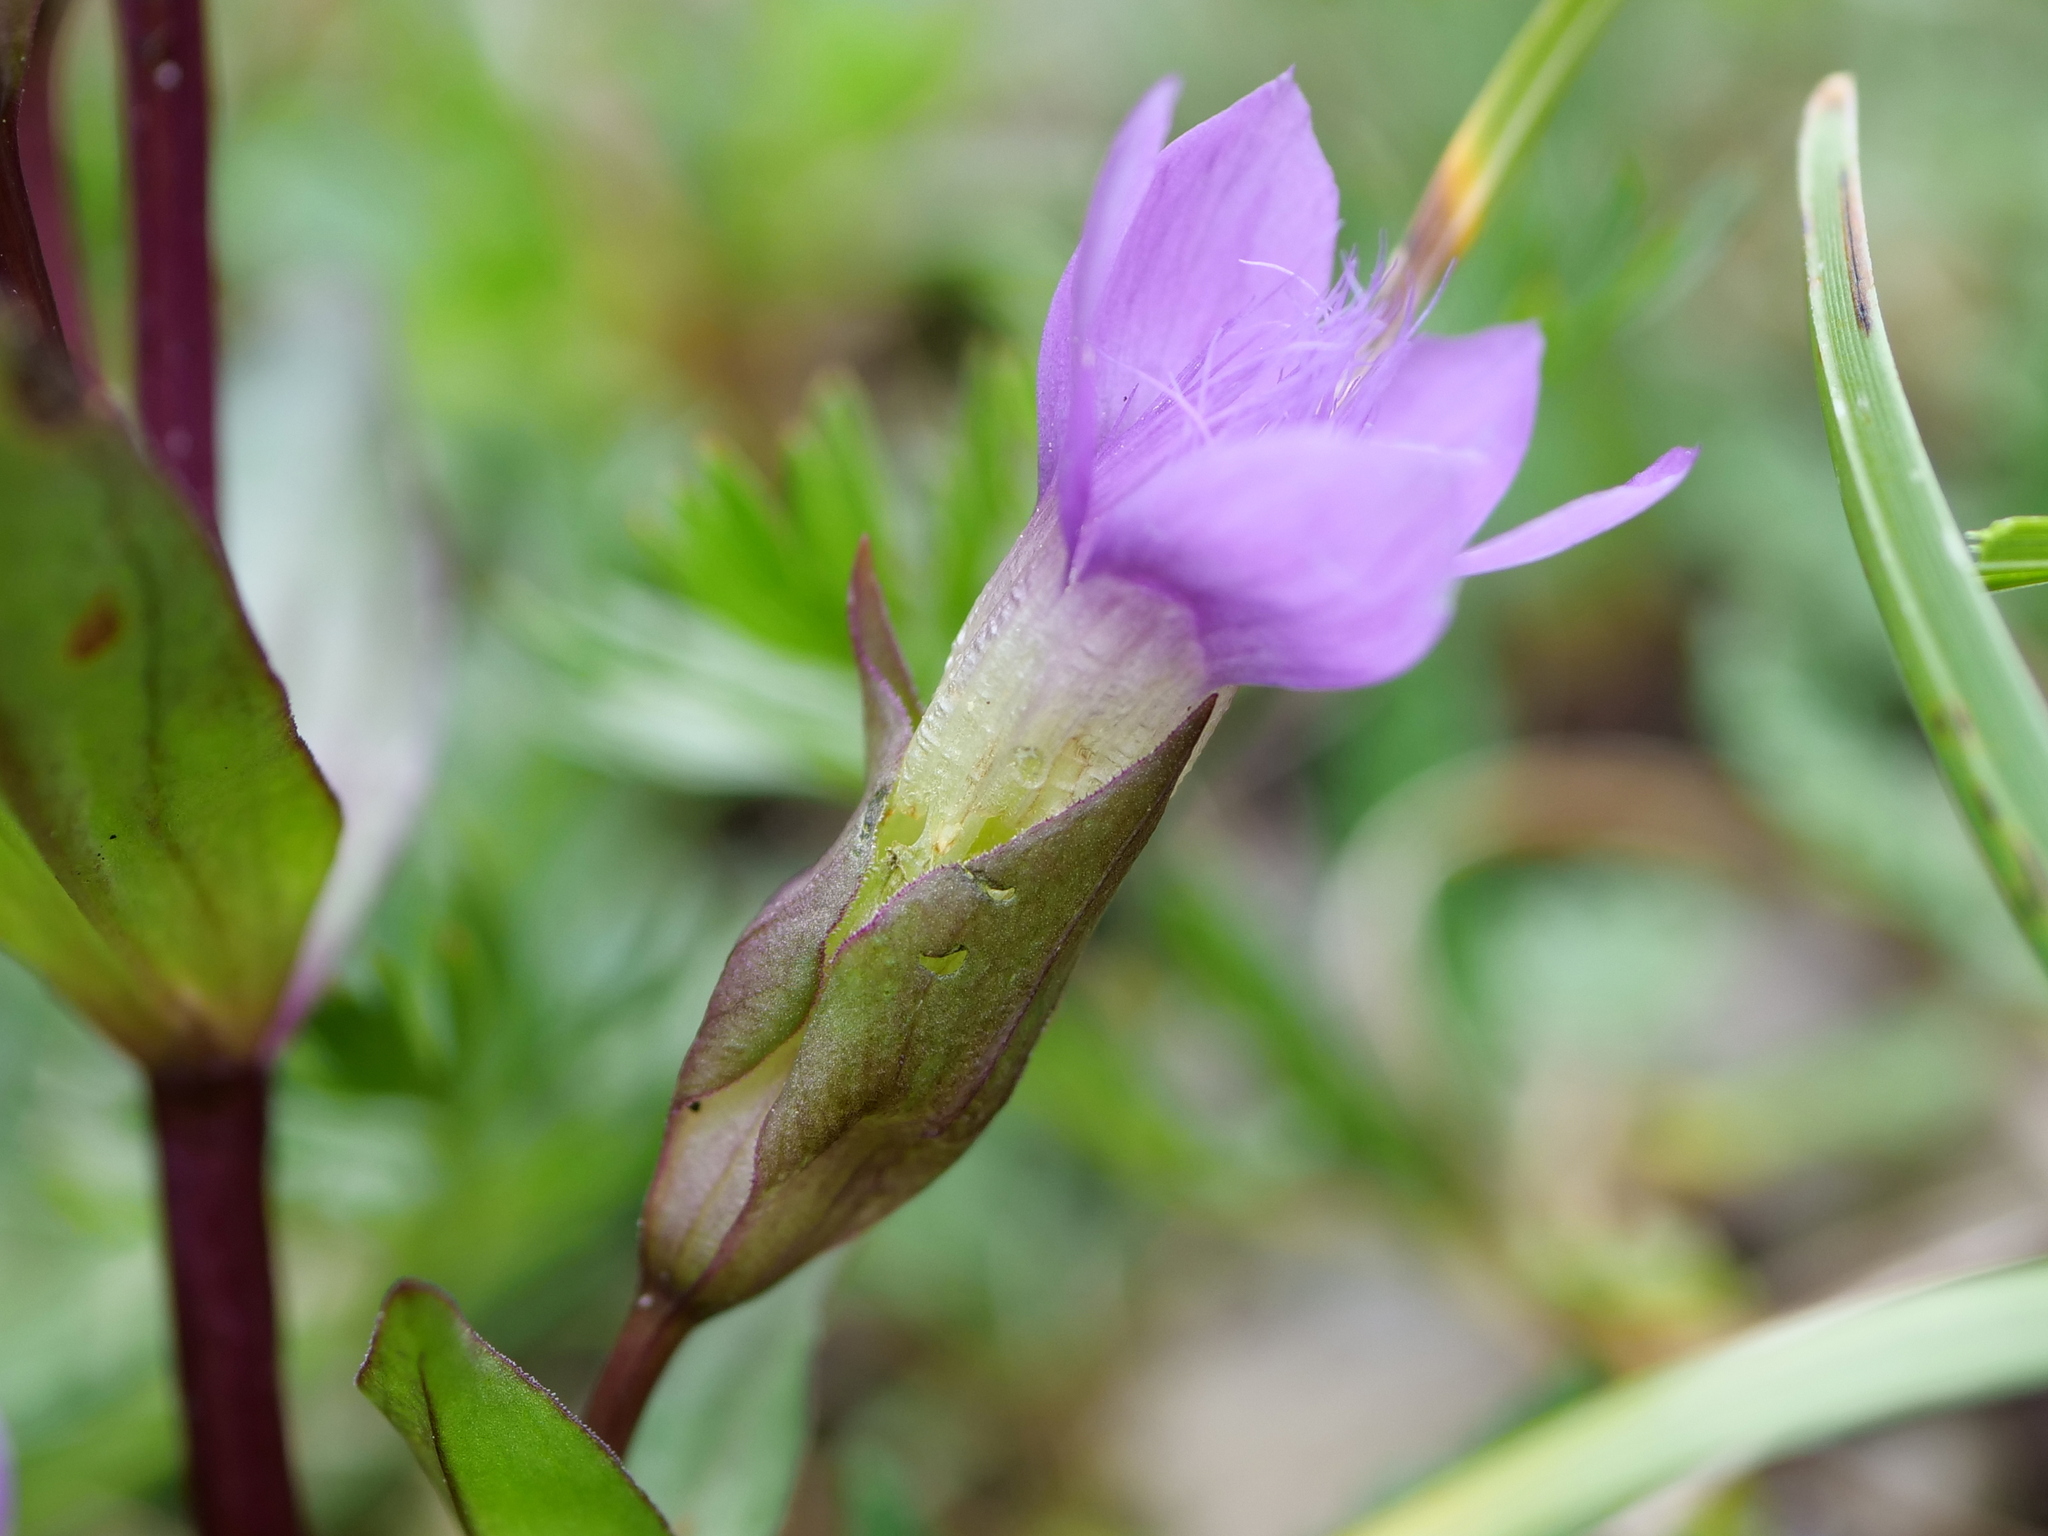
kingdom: Plantae
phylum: Tracheophyta
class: Magnoliopsida
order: Gentianales
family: Gentianaceae
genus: Gentianella
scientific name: Gentianella campestris
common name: Field gentian
